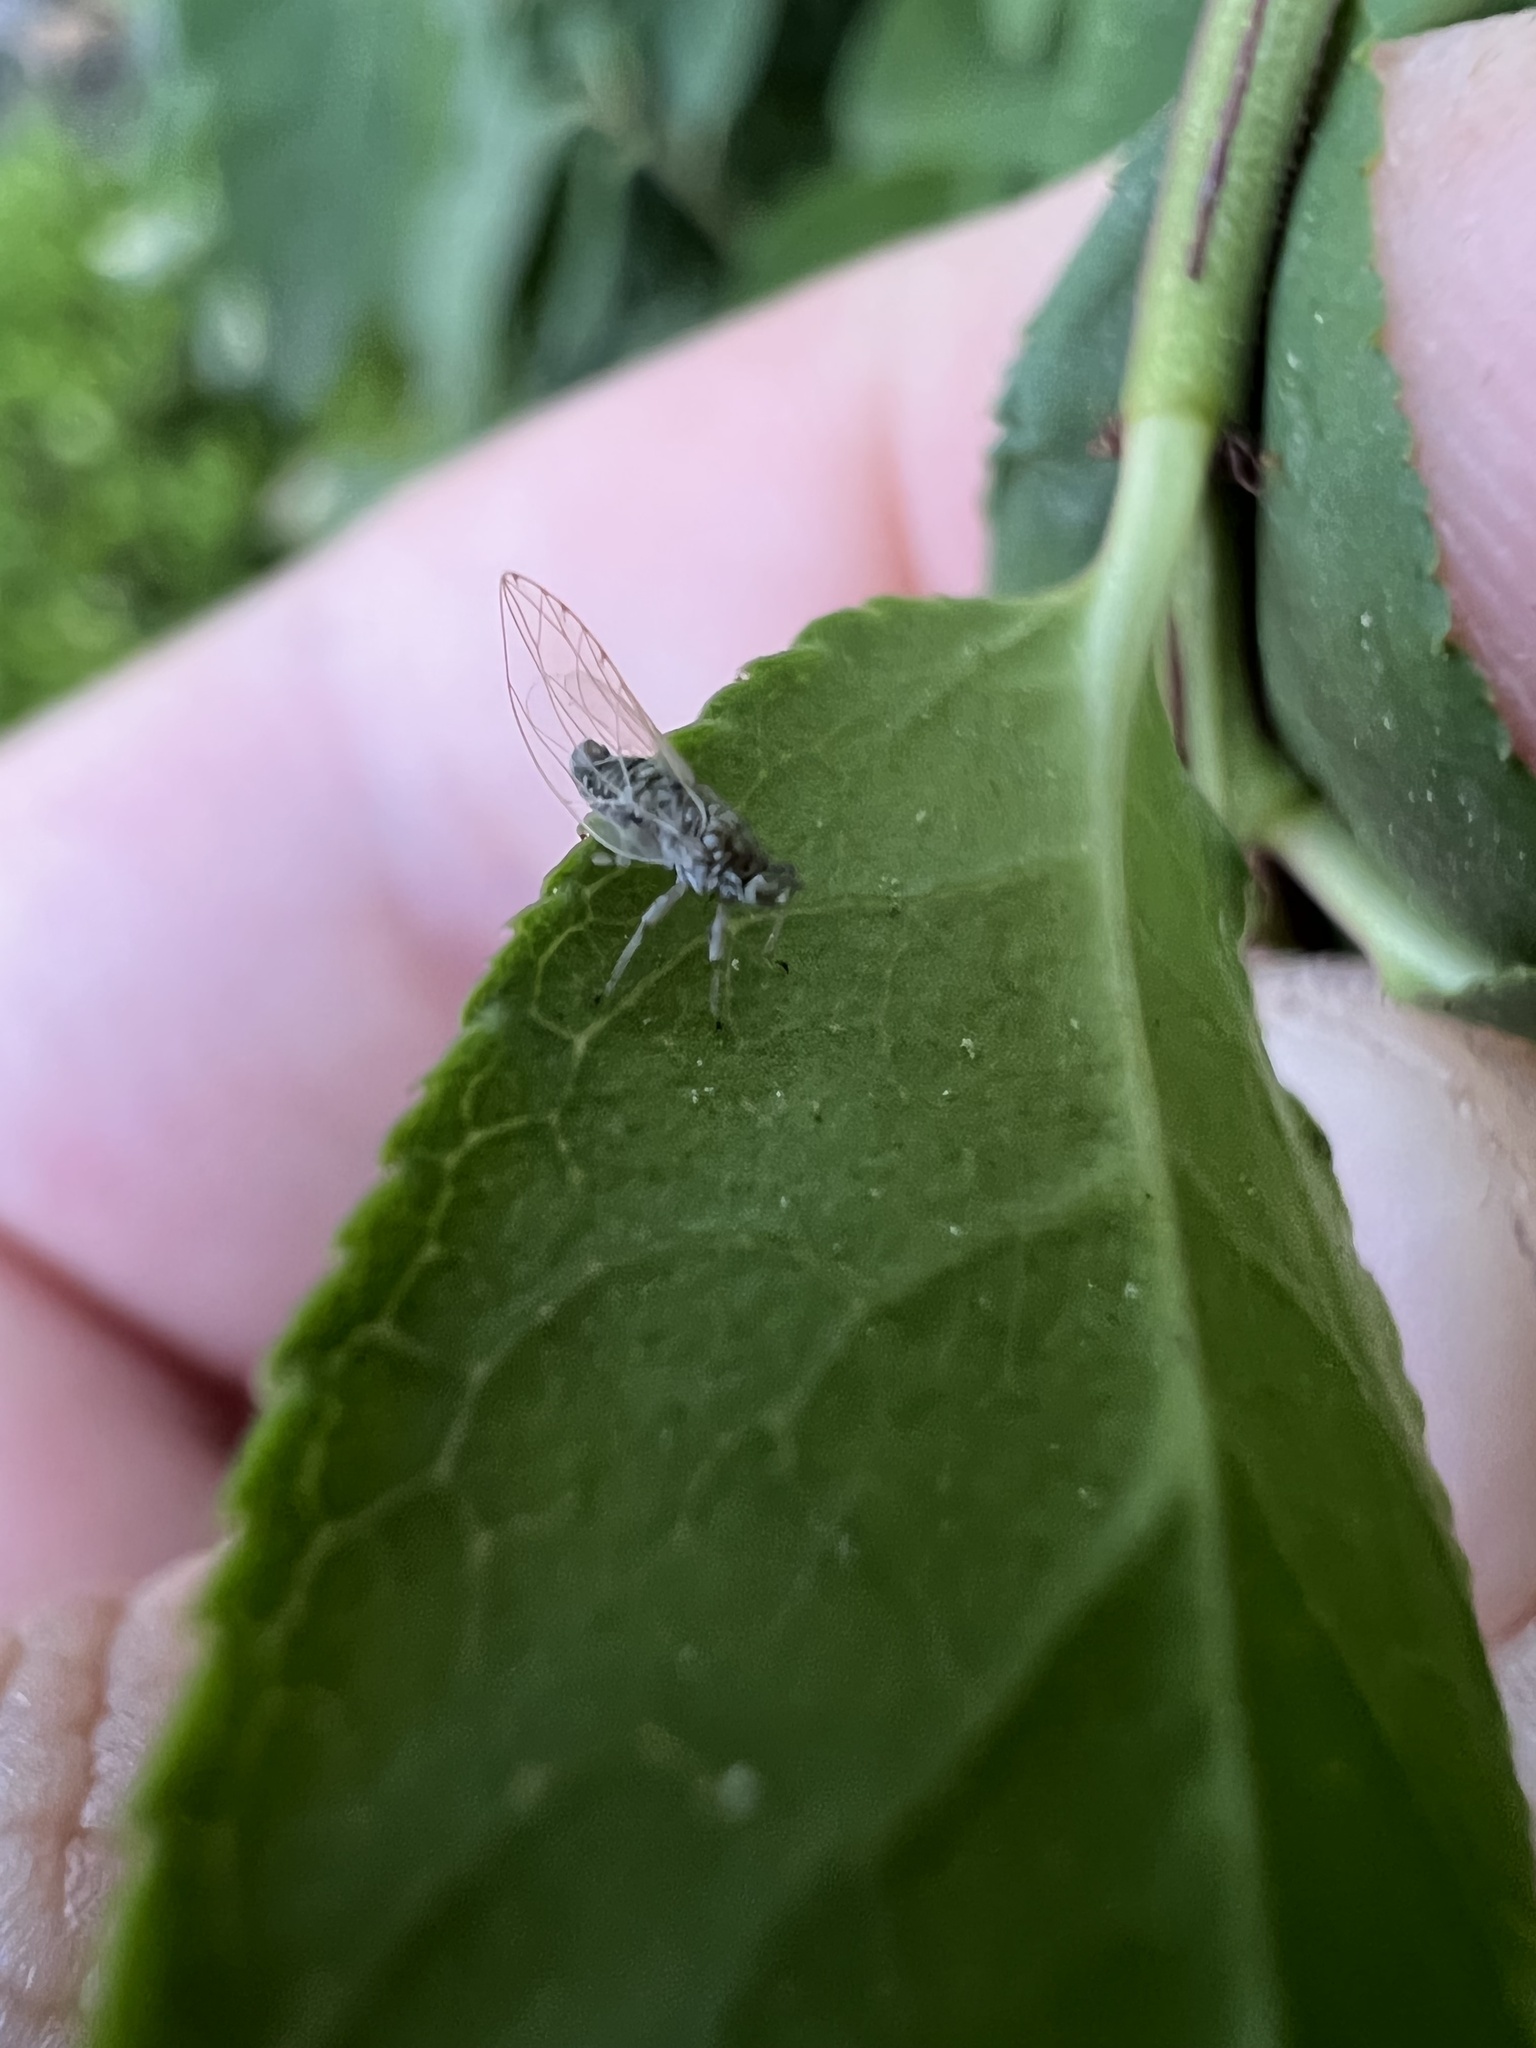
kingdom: Animalia
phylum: Arthropoda
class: Insecta
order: Hemiptera
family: Triozidae
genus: Bactericera
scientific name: Bactericera arbolensis
